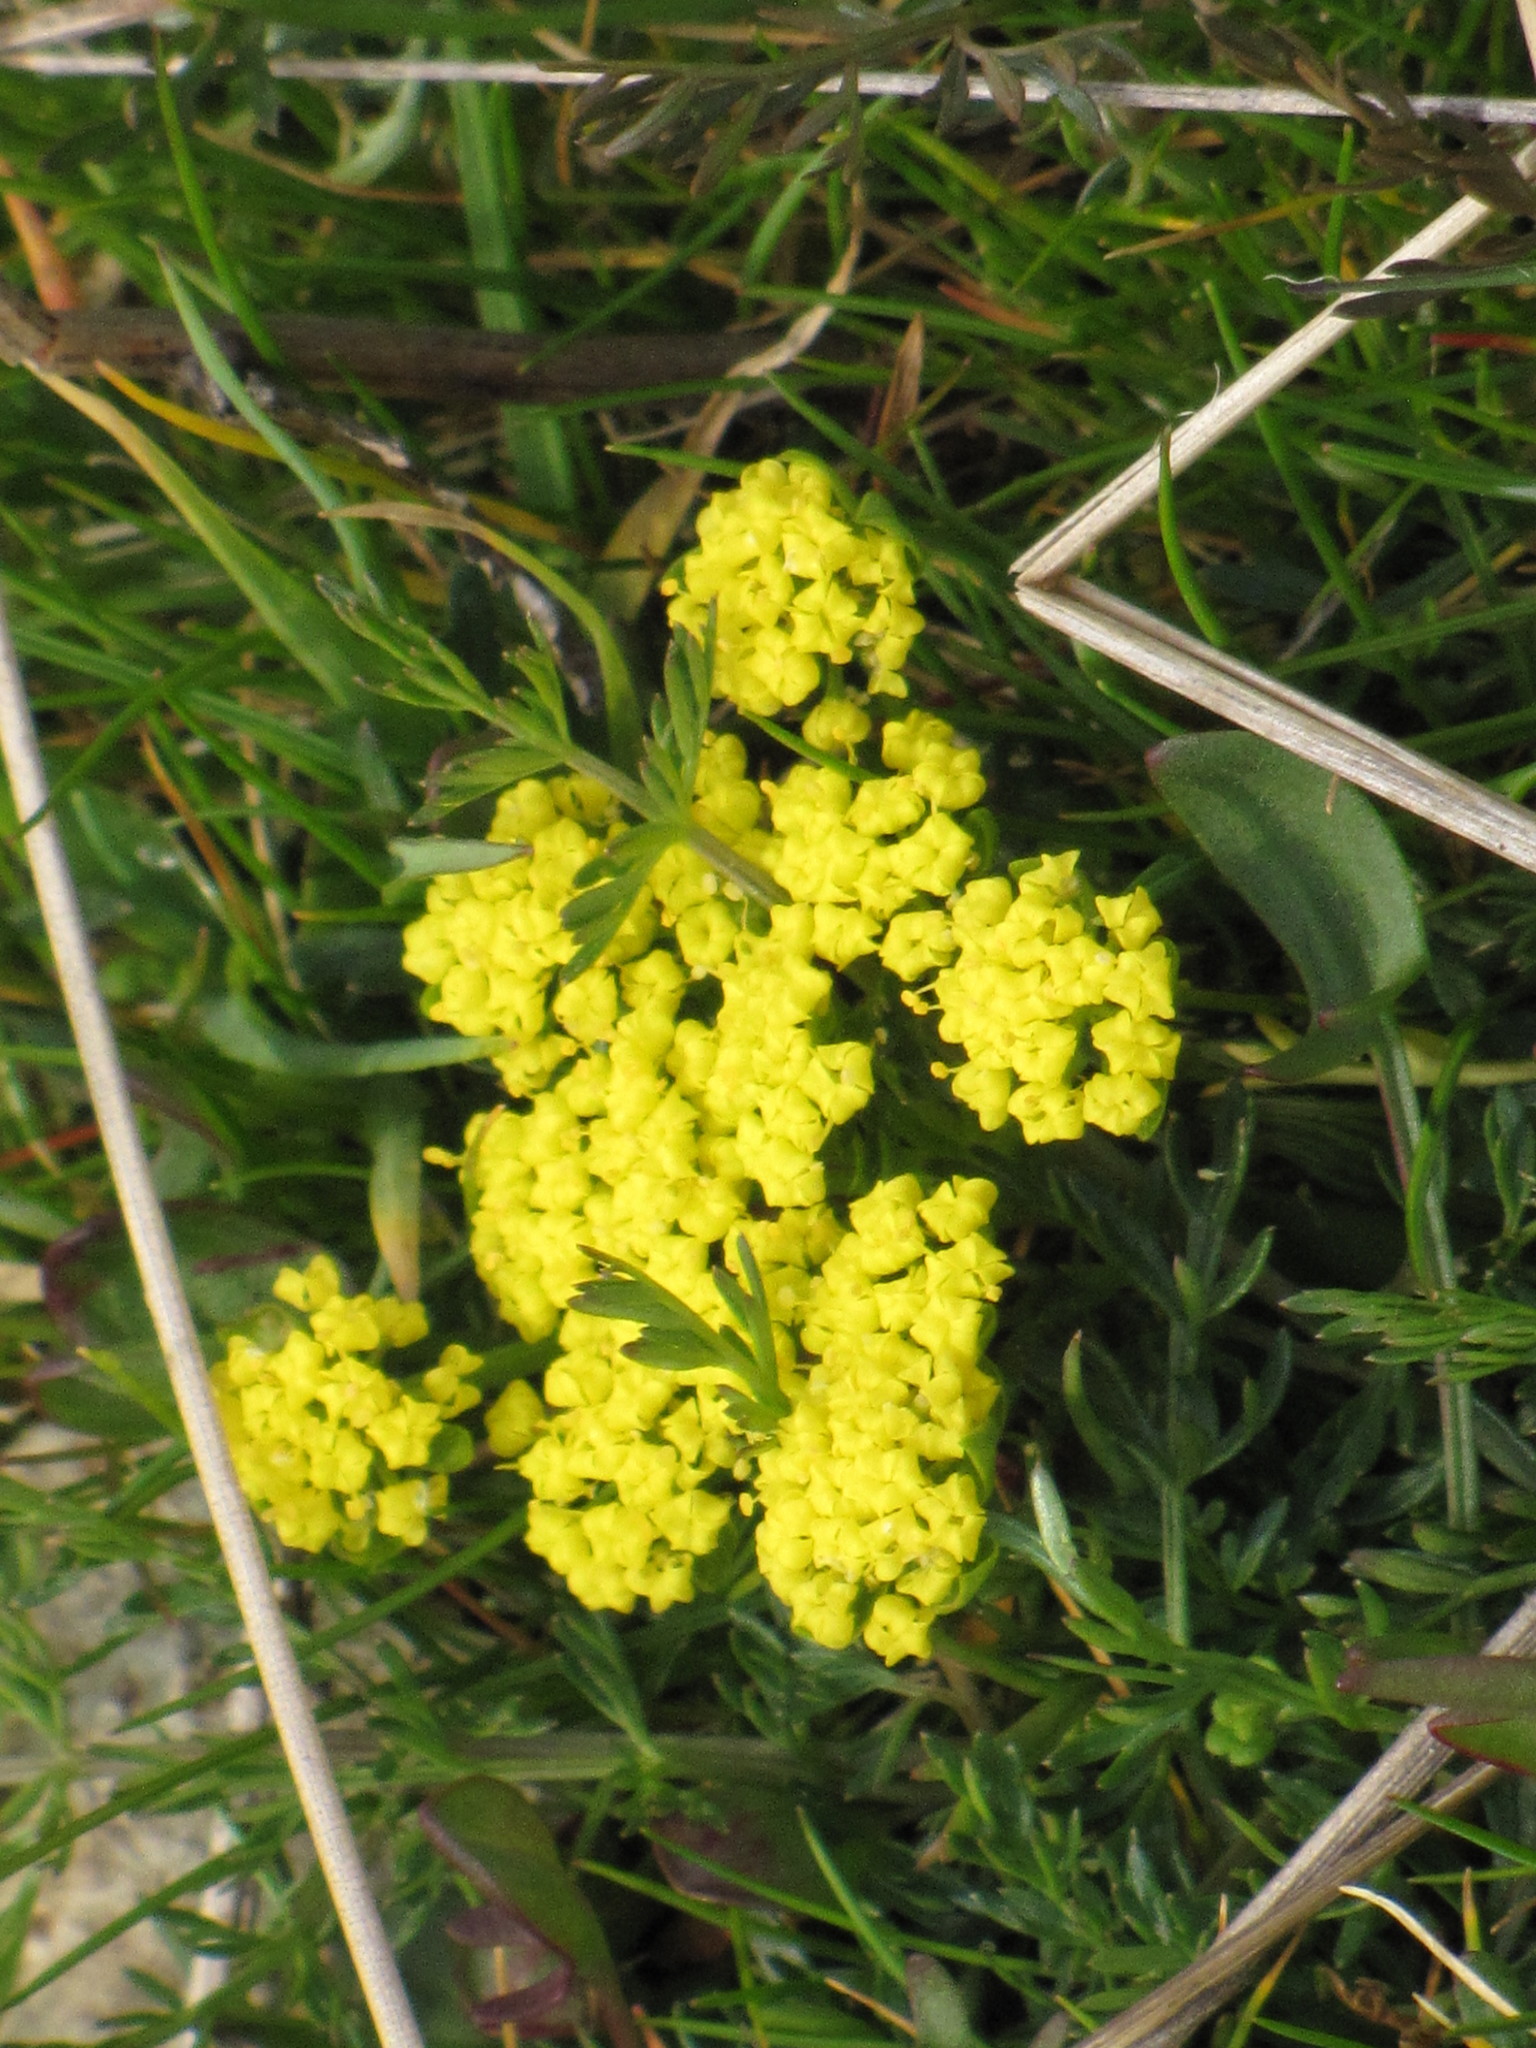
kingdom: Plantae
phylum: Tracheophyta
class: Magnoliopsida
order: Apiales
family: Apiaceae
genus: Lomatium
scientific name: Lomatium utriculatum
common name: Fine-leaf desert-parsley
